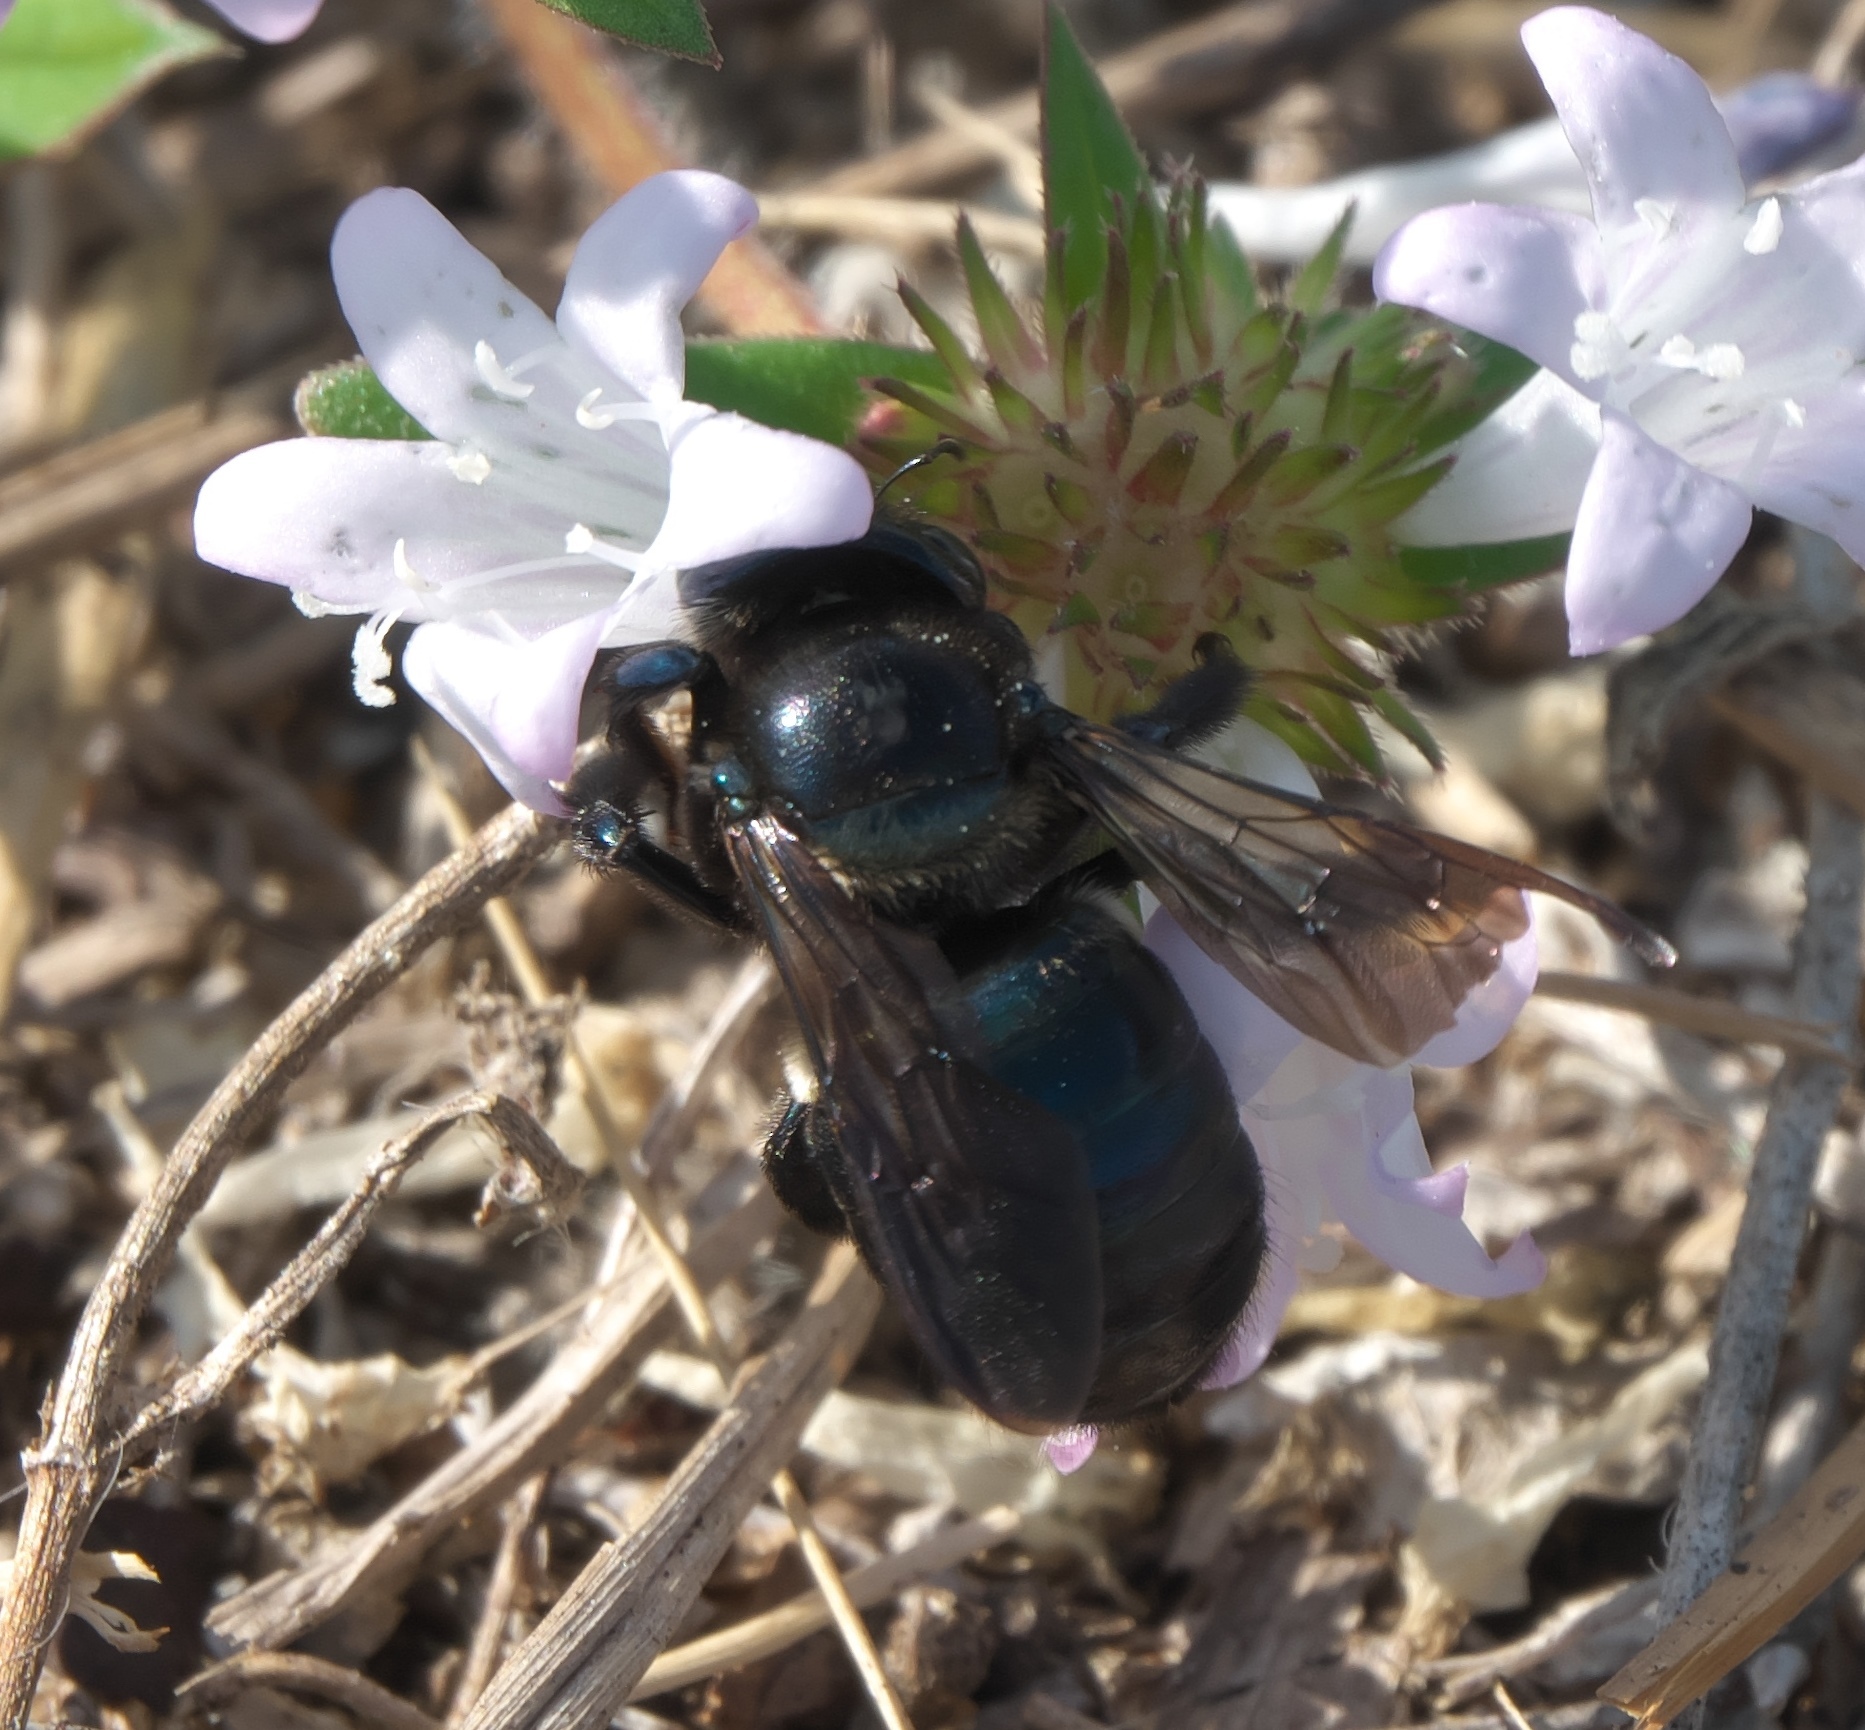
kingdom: Animalia
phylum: Arthropoda
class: Insecta
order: Hymenoptera
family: Apidae
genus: Xylocopa
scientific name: Xylocopa micans
